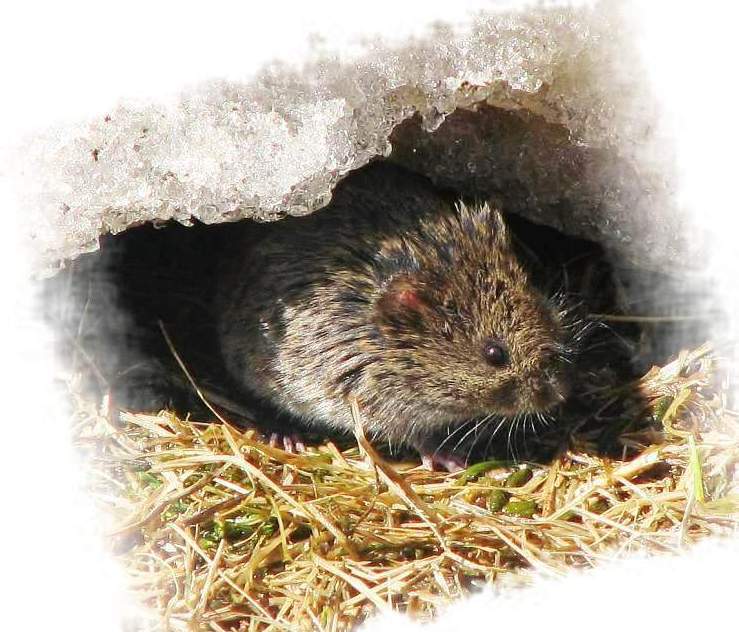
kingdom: Animalia
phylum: Chordata
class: Mammalia
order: Rodentia
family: Cricetidae
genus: Microtus
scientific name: Microtus pennsylvanicus
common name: Meadow vole
